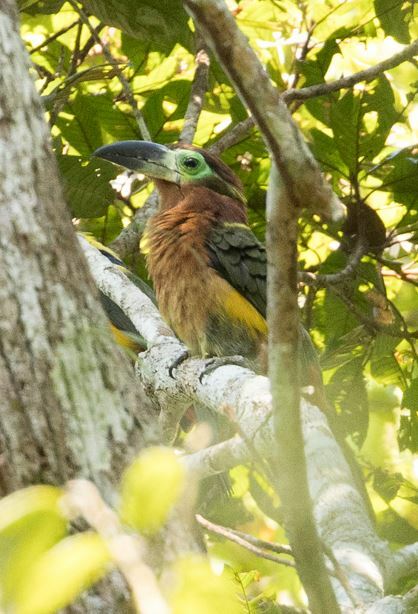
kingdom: Animalia
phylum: Chordata
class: Aves
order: Piciformes
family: Ramphastidae
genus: Selenidera
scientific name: Selenidera reinwardtii
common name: Golden-collared toucanet
